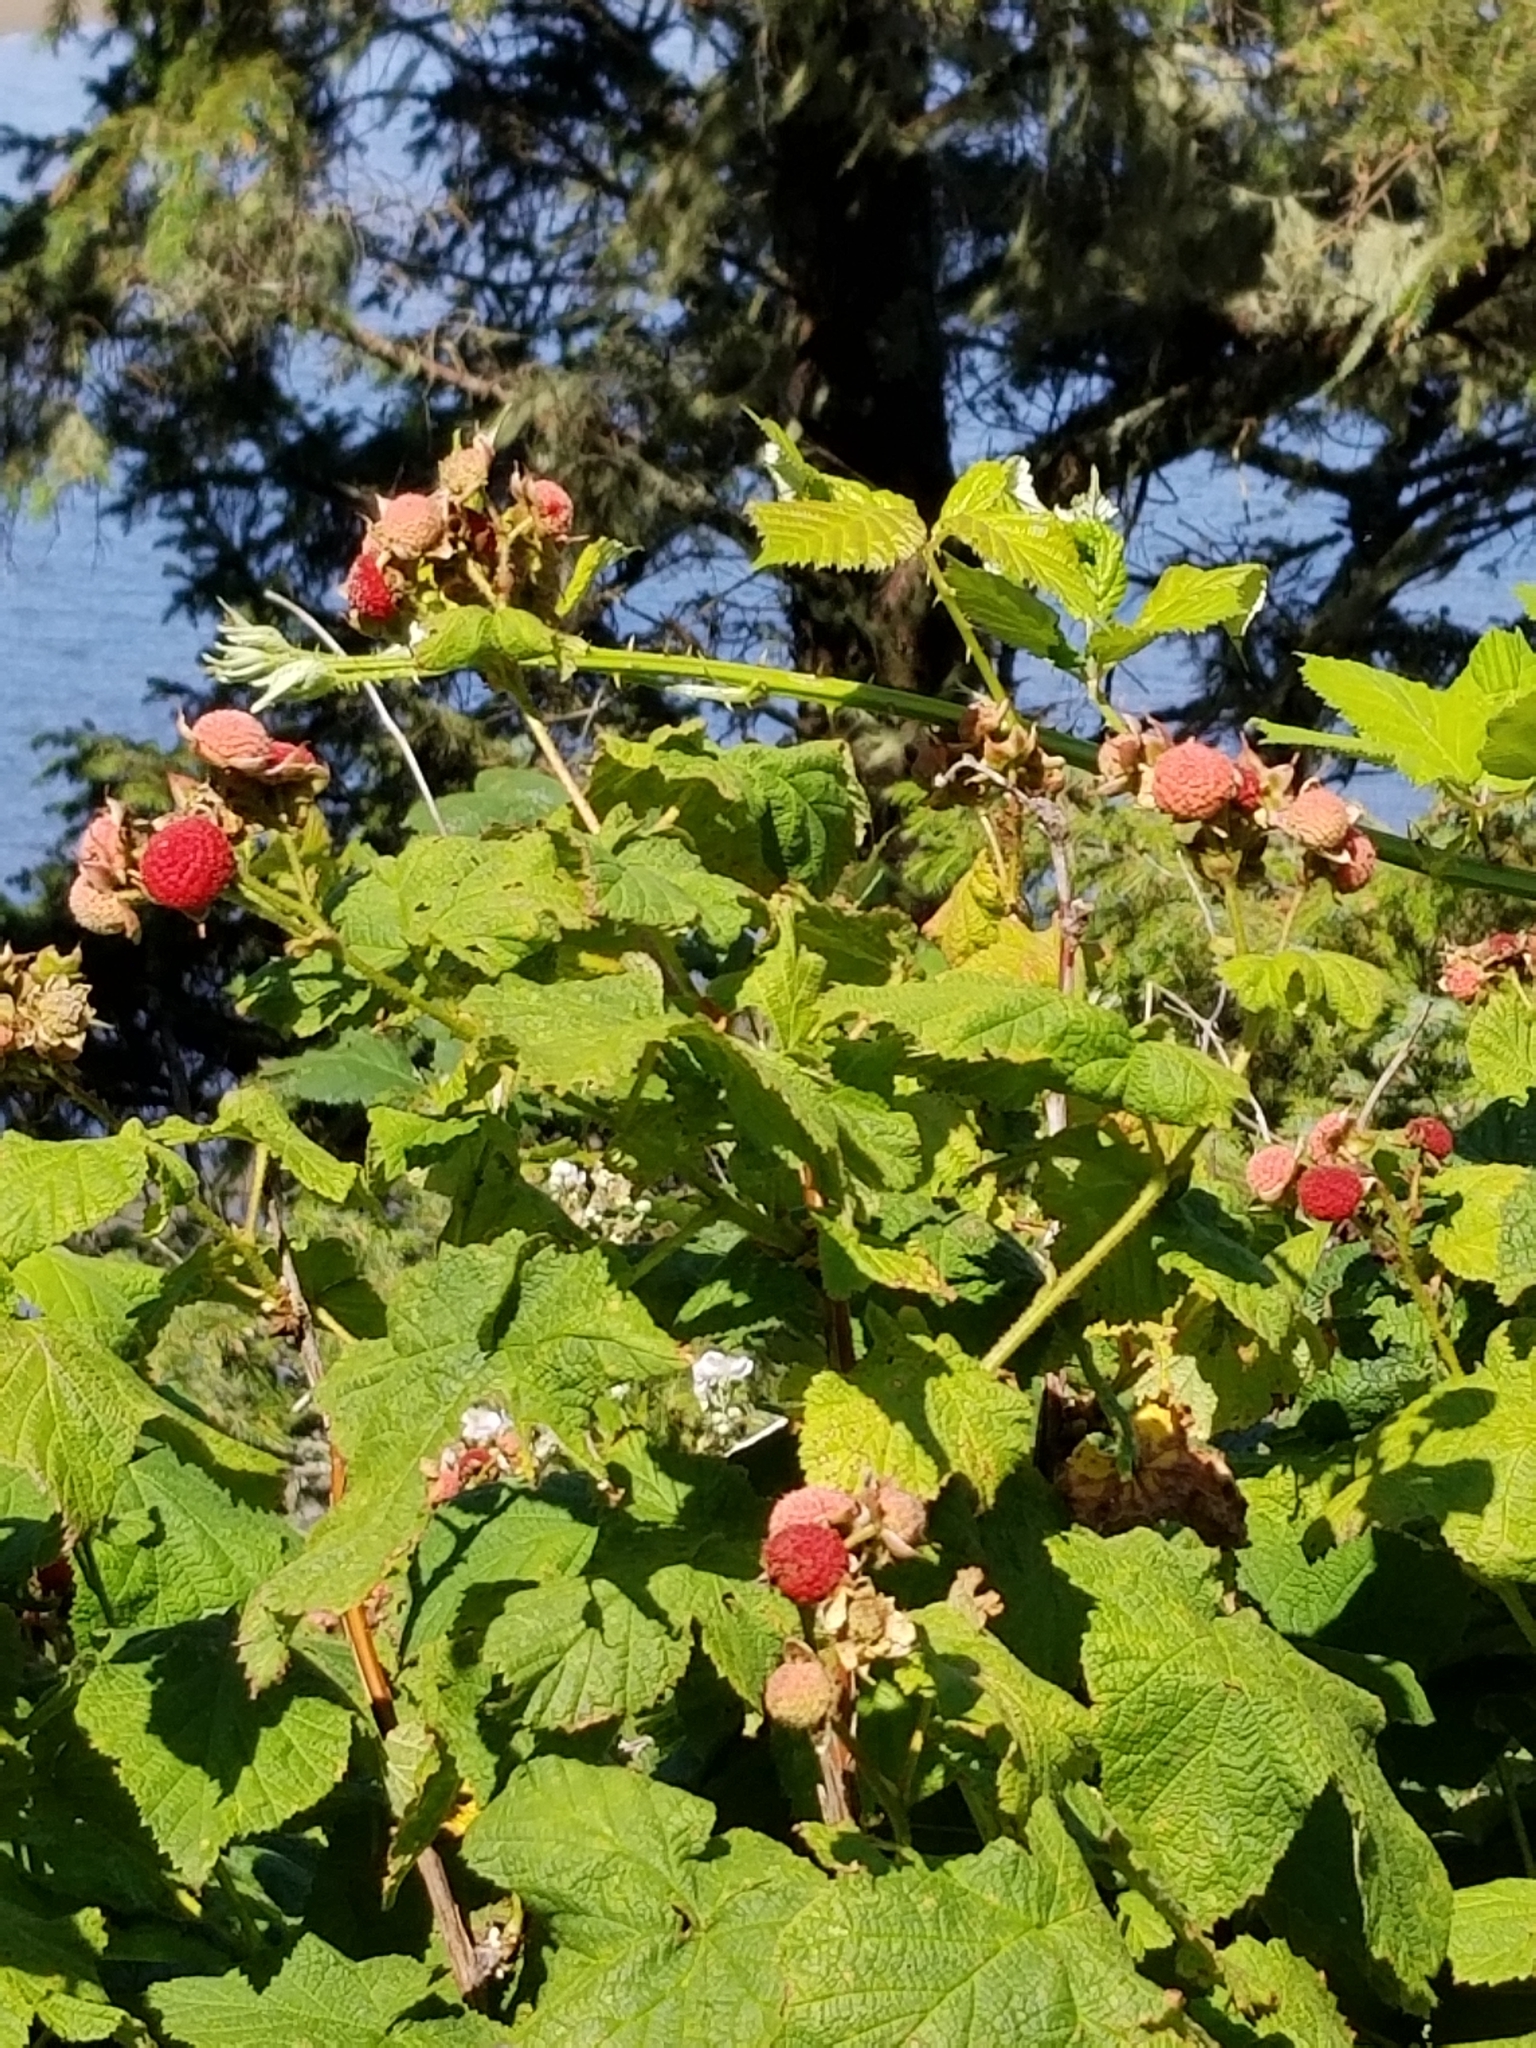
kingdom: Plantae
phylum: Tracheophyta
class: Magnoliopsida
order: Rosales
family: Rosaceae
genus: Rubus
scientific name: Rubus parviflorus
